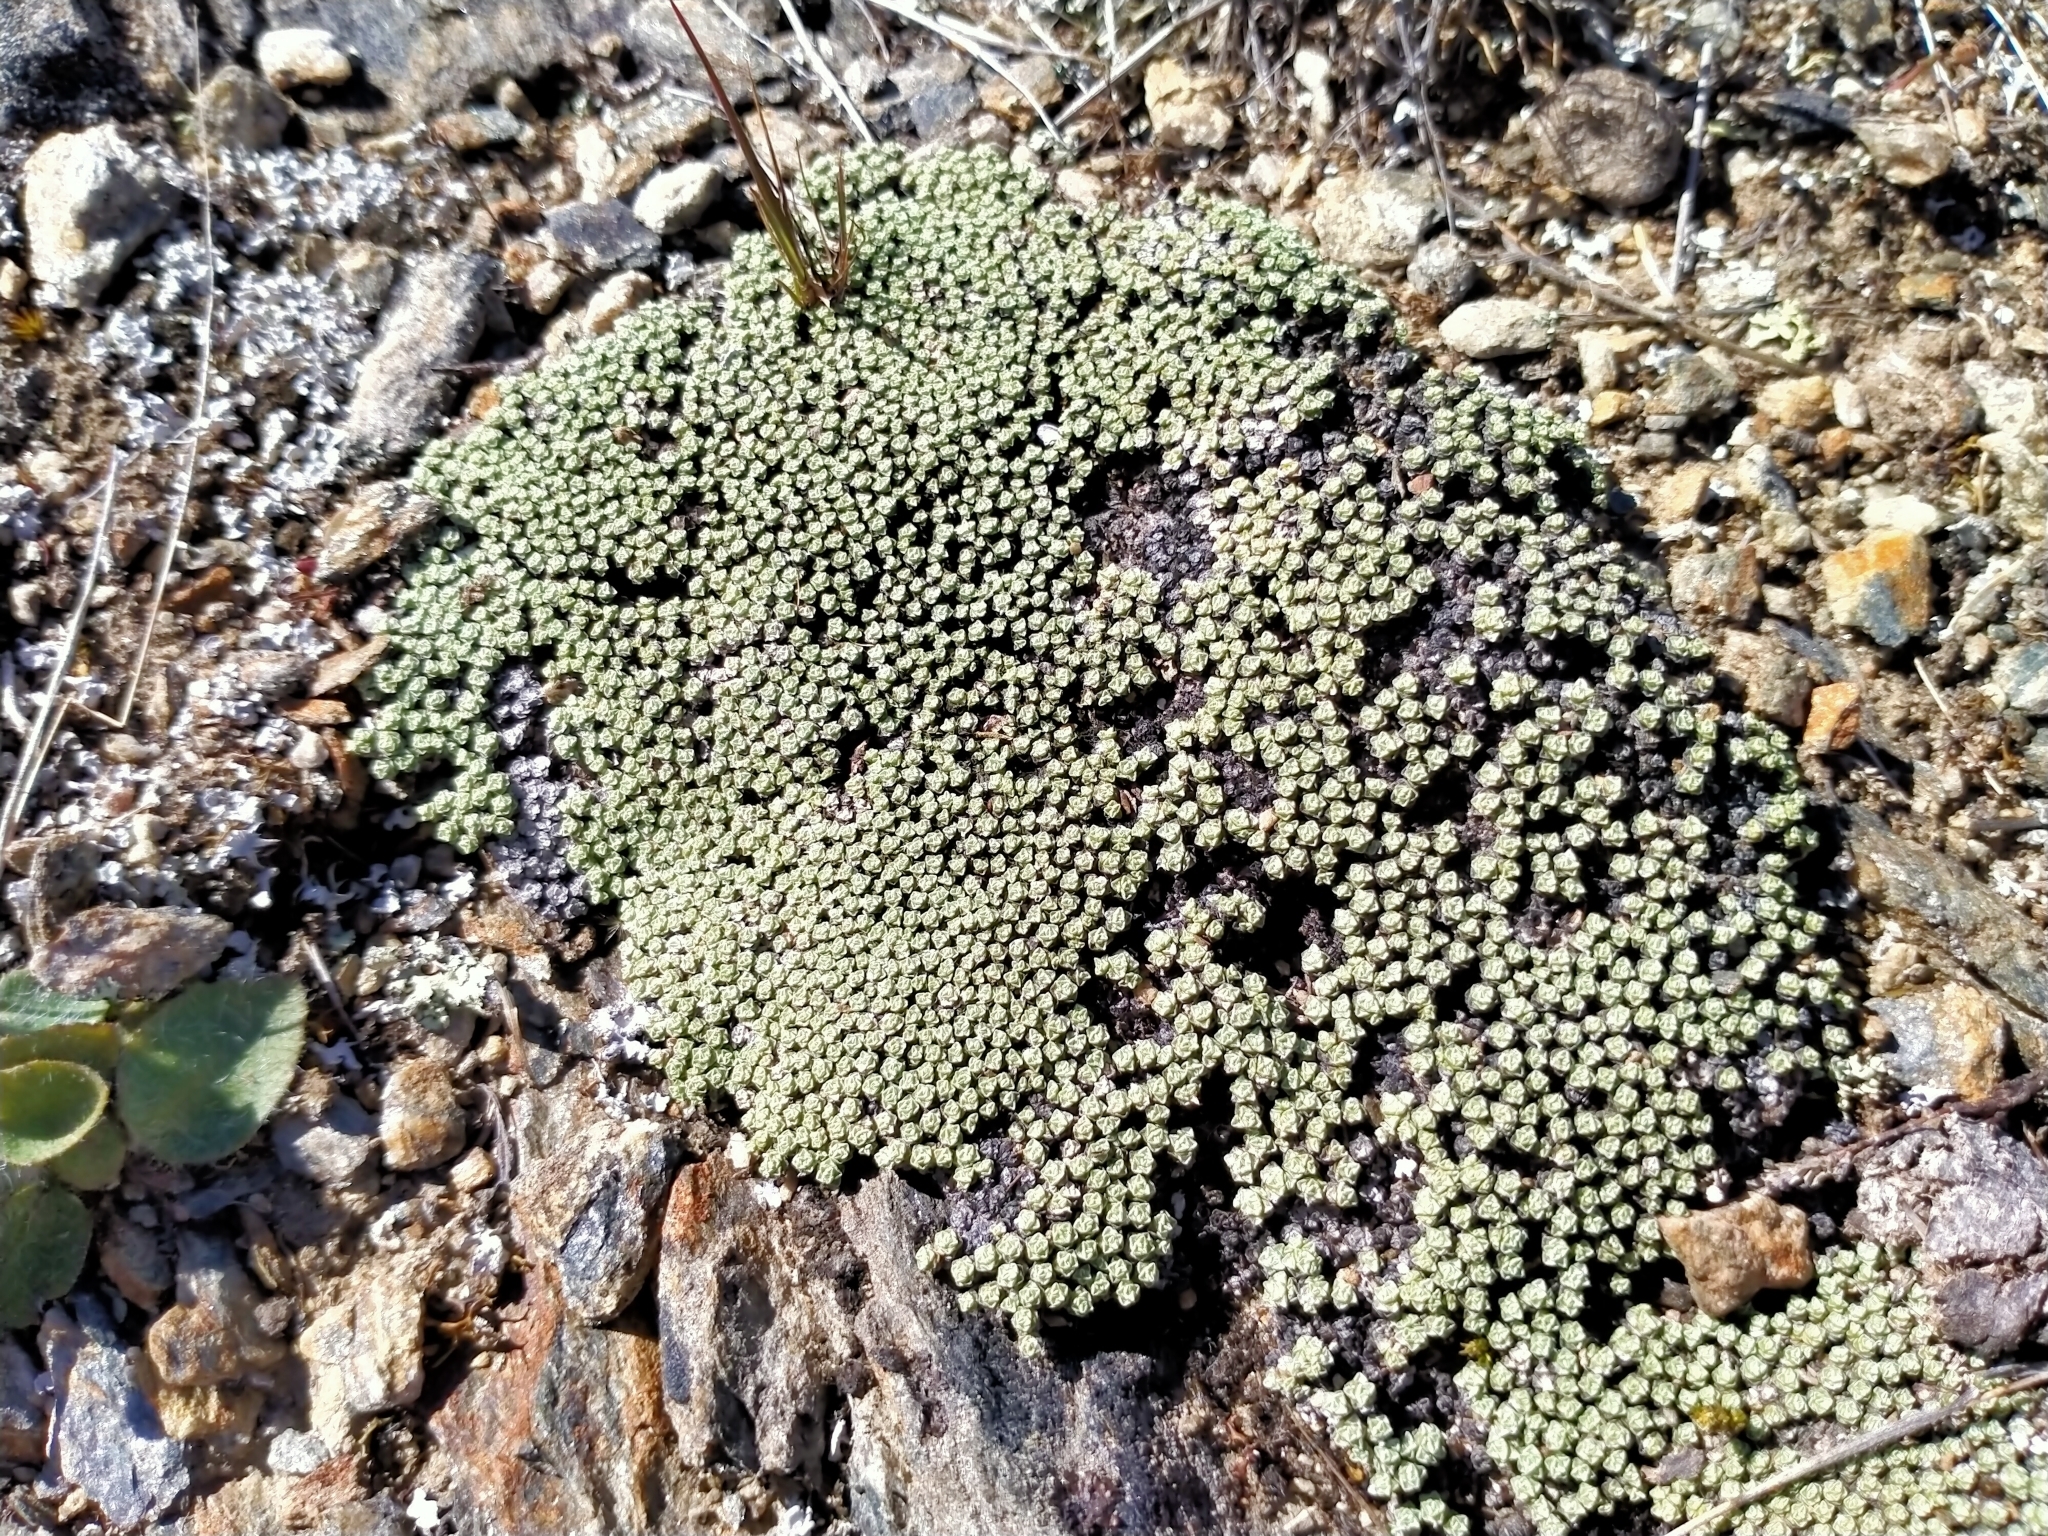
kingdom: Plantae
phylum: Tracheophyta
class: Magnoliopsida
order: Asterales
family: Asteraceae
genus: Raoulia
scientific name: Raoulia australis
